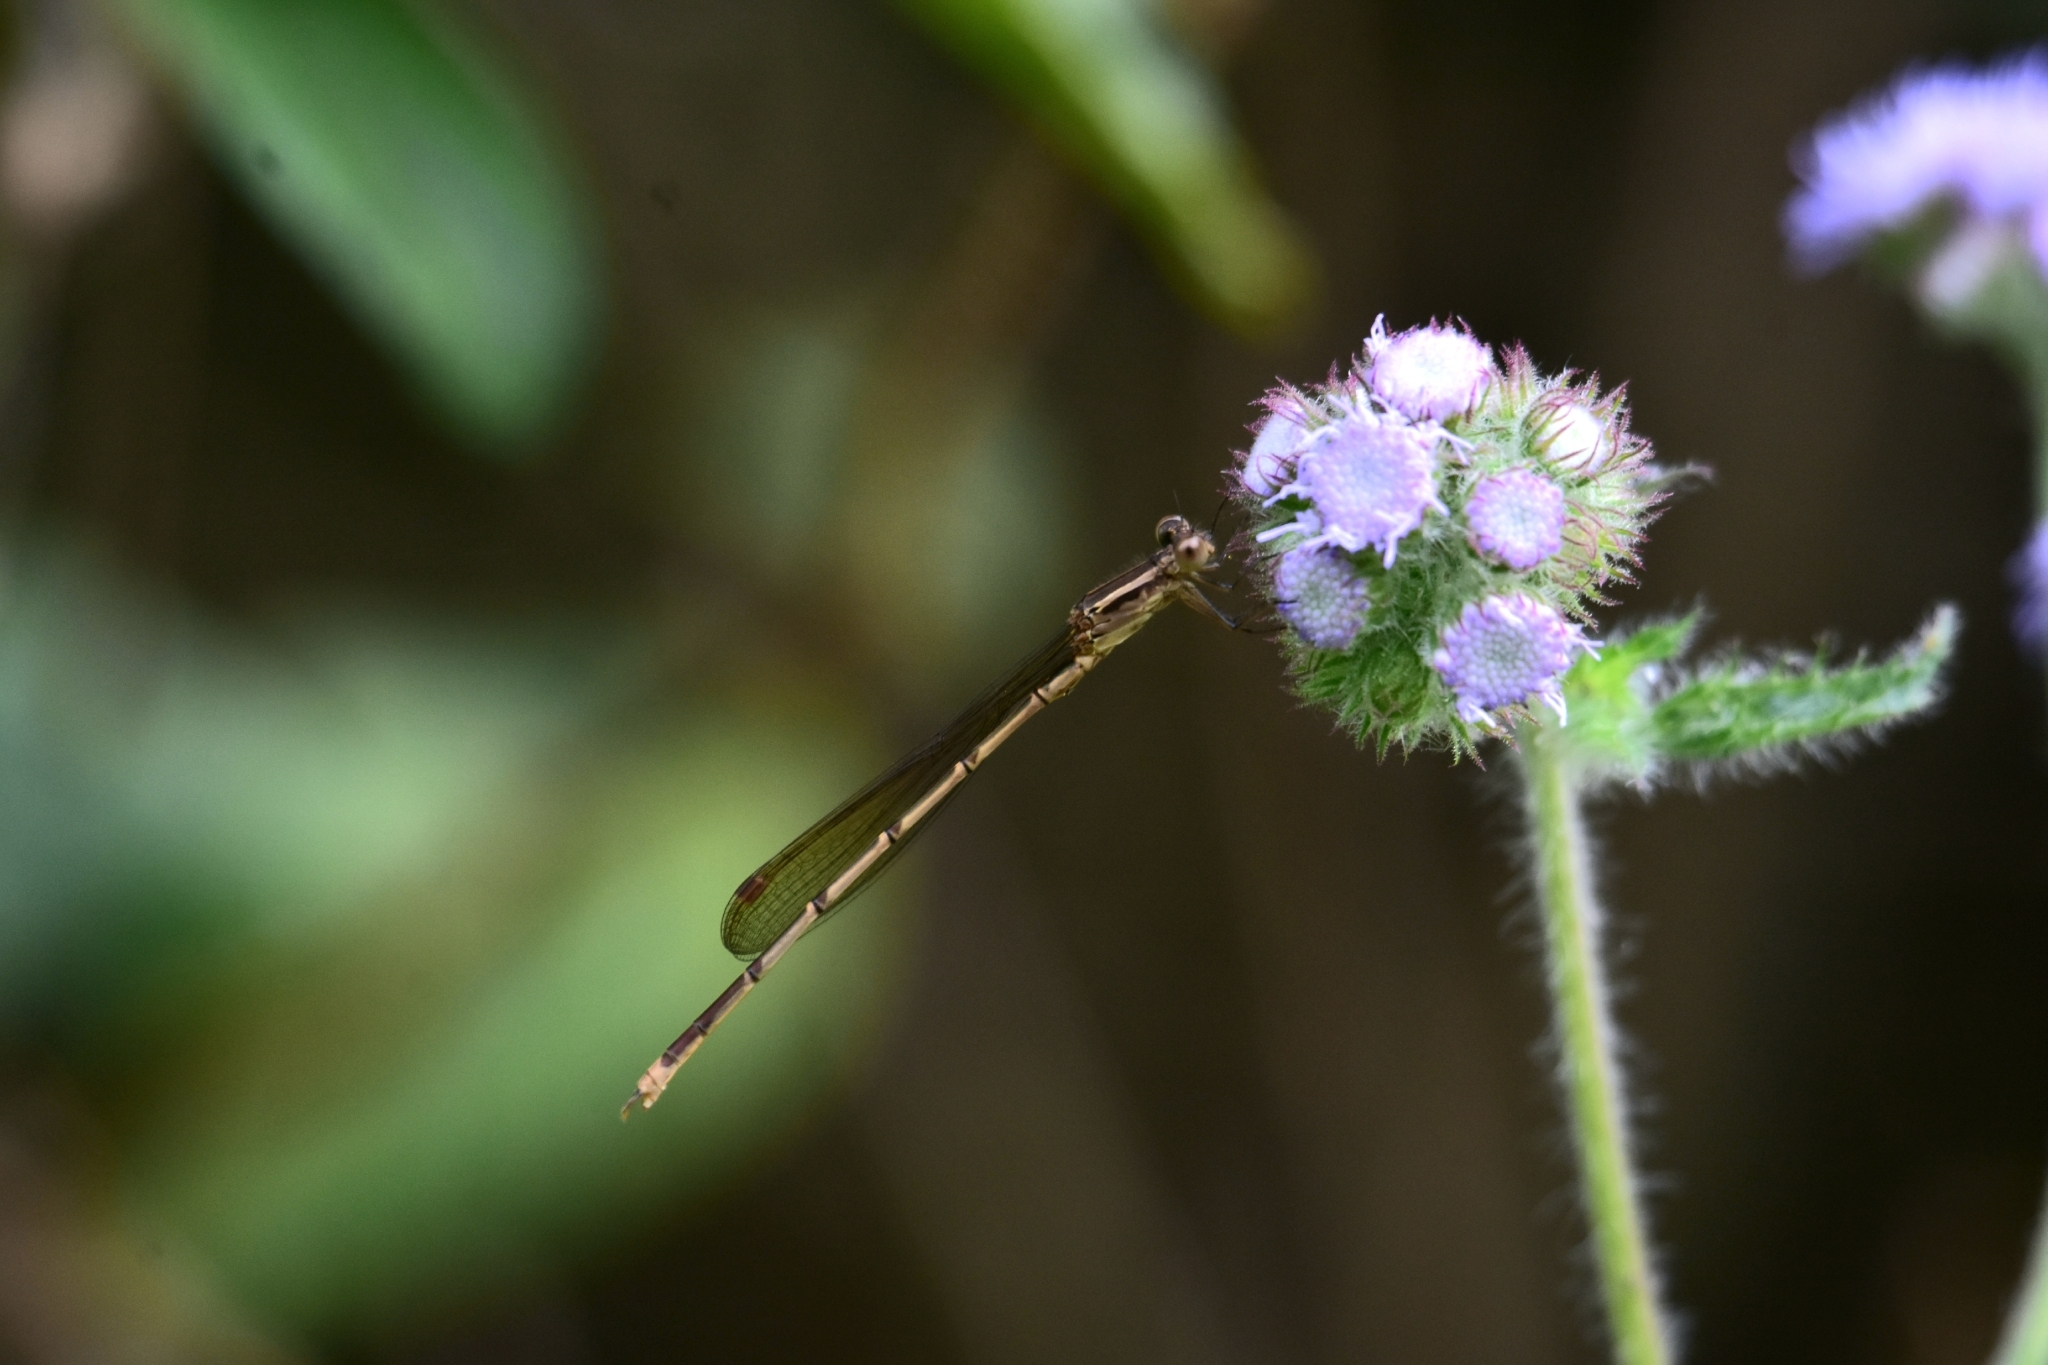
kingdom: Animalia
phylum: Arthropoda
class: Insecta
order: Odonata
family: Lestidae
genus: Indolestes
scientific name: Indolestes gracilis
